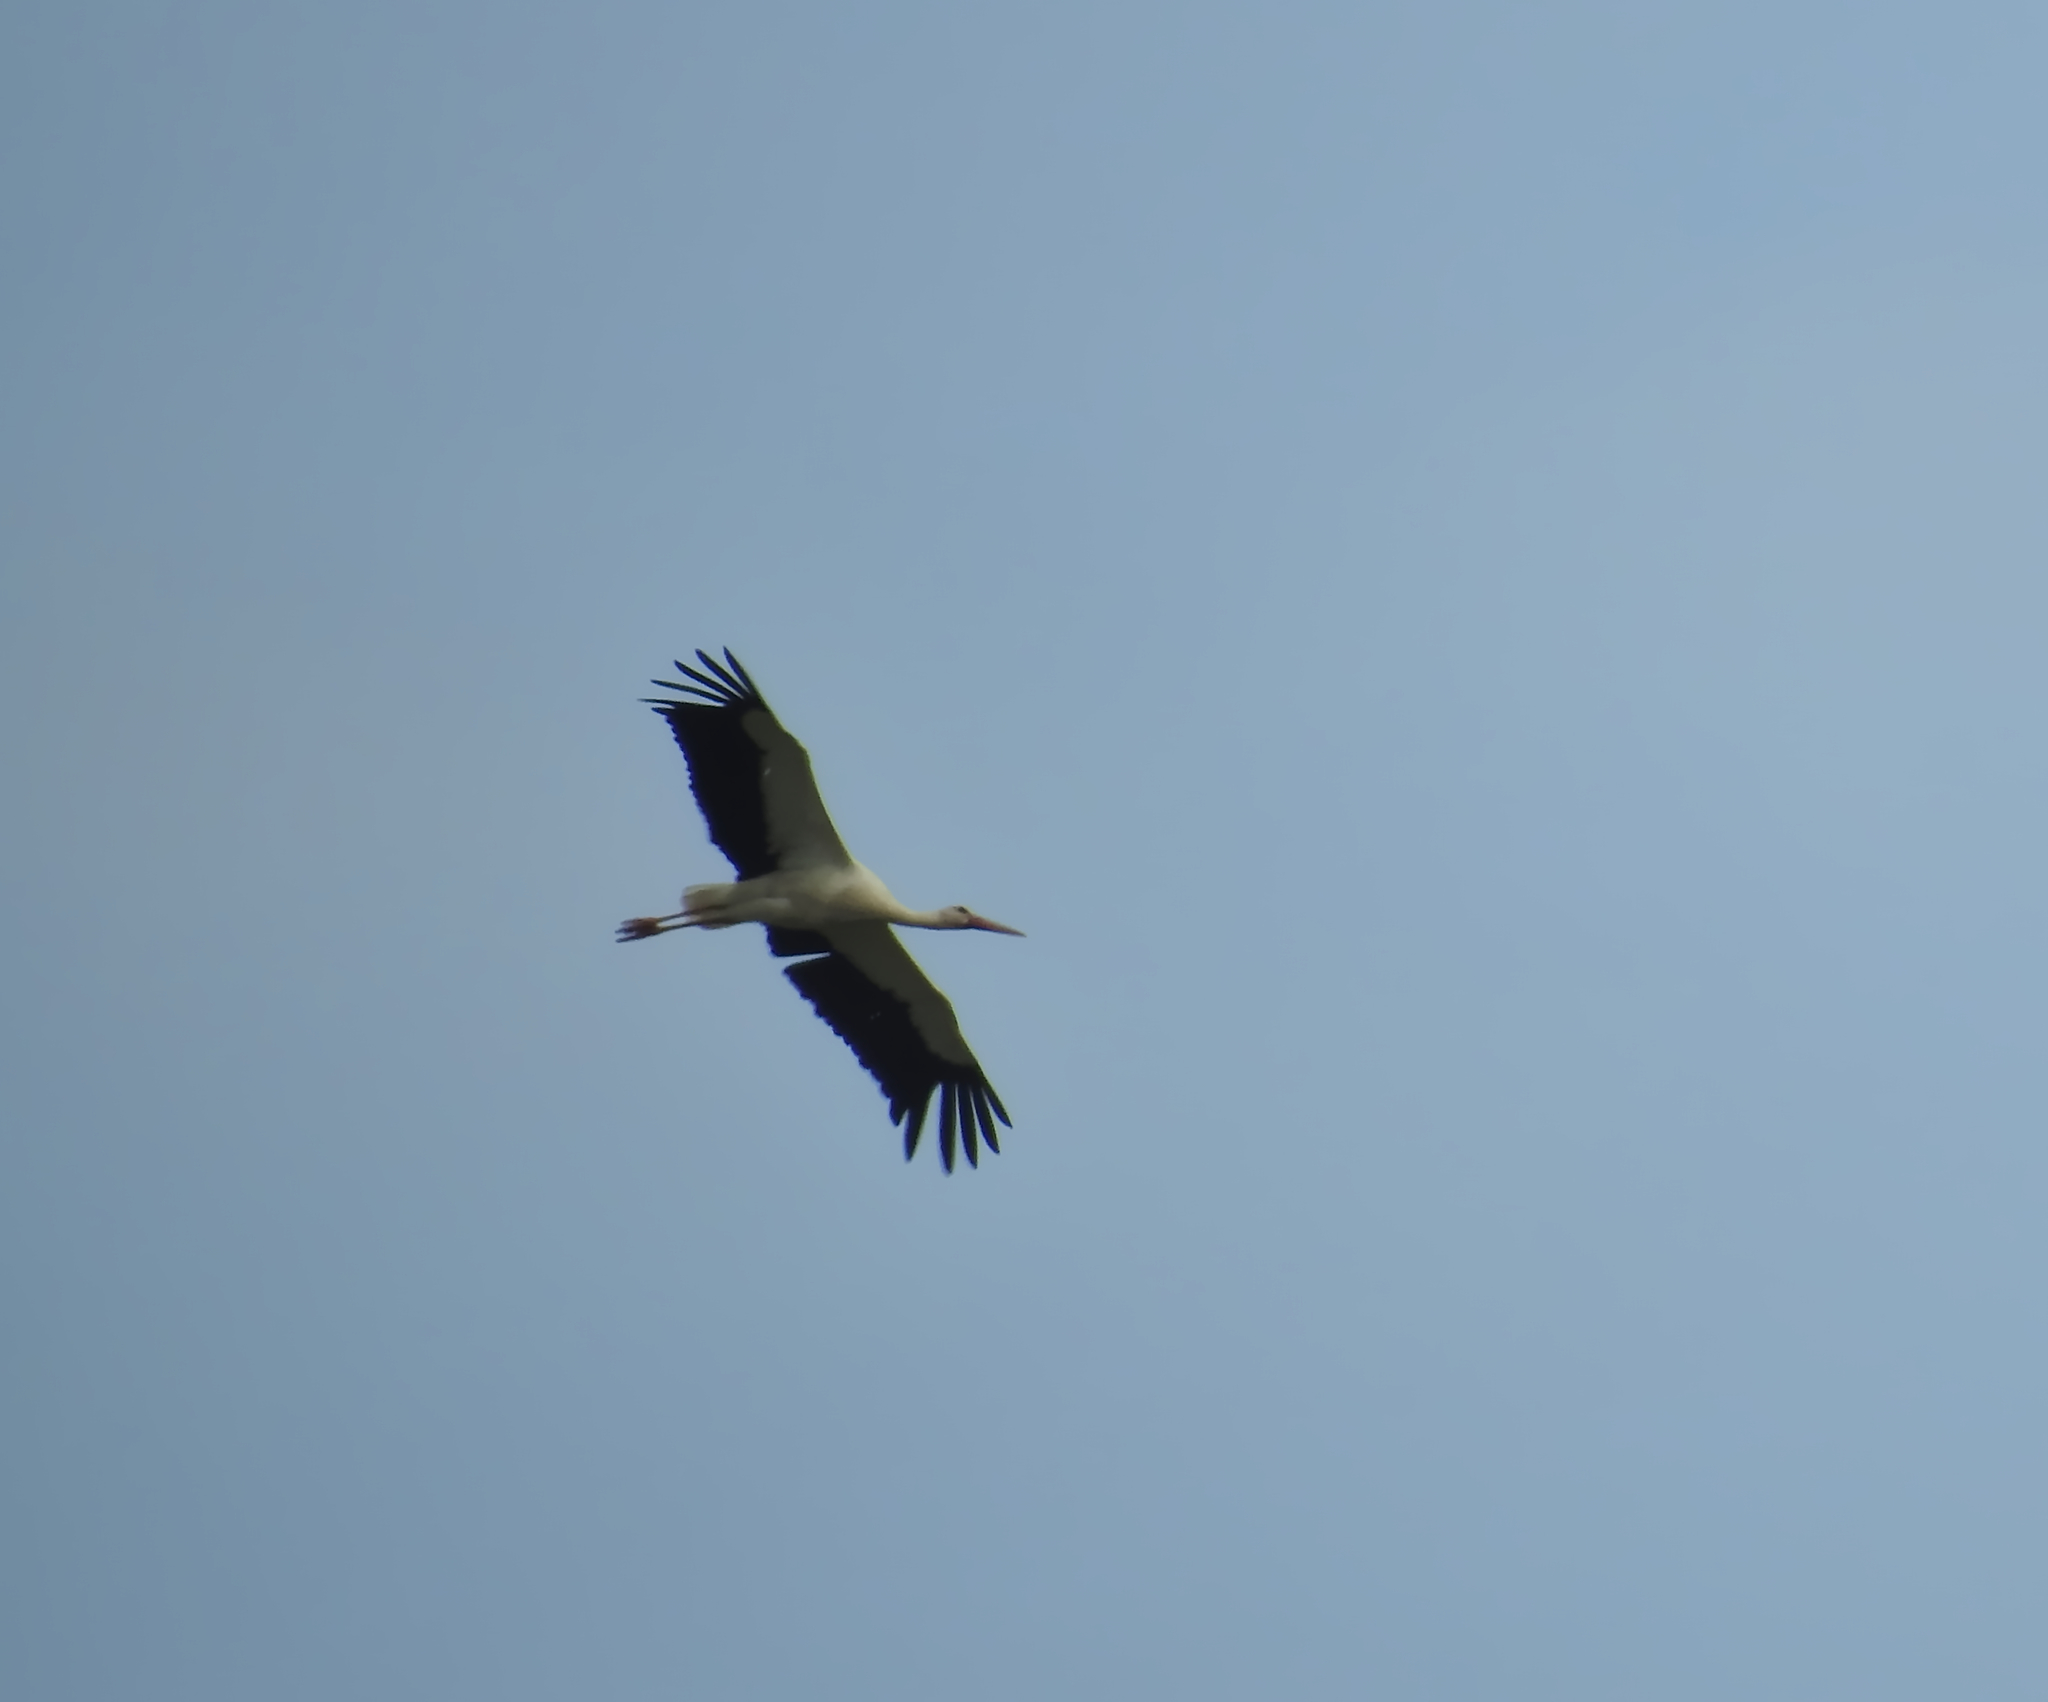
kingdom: Animalia
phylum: Chordata
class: Aves
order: Ciconiiformes
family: Ciconiidae
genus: Ciconia
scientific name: Ciconia ciconia
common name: White stork
